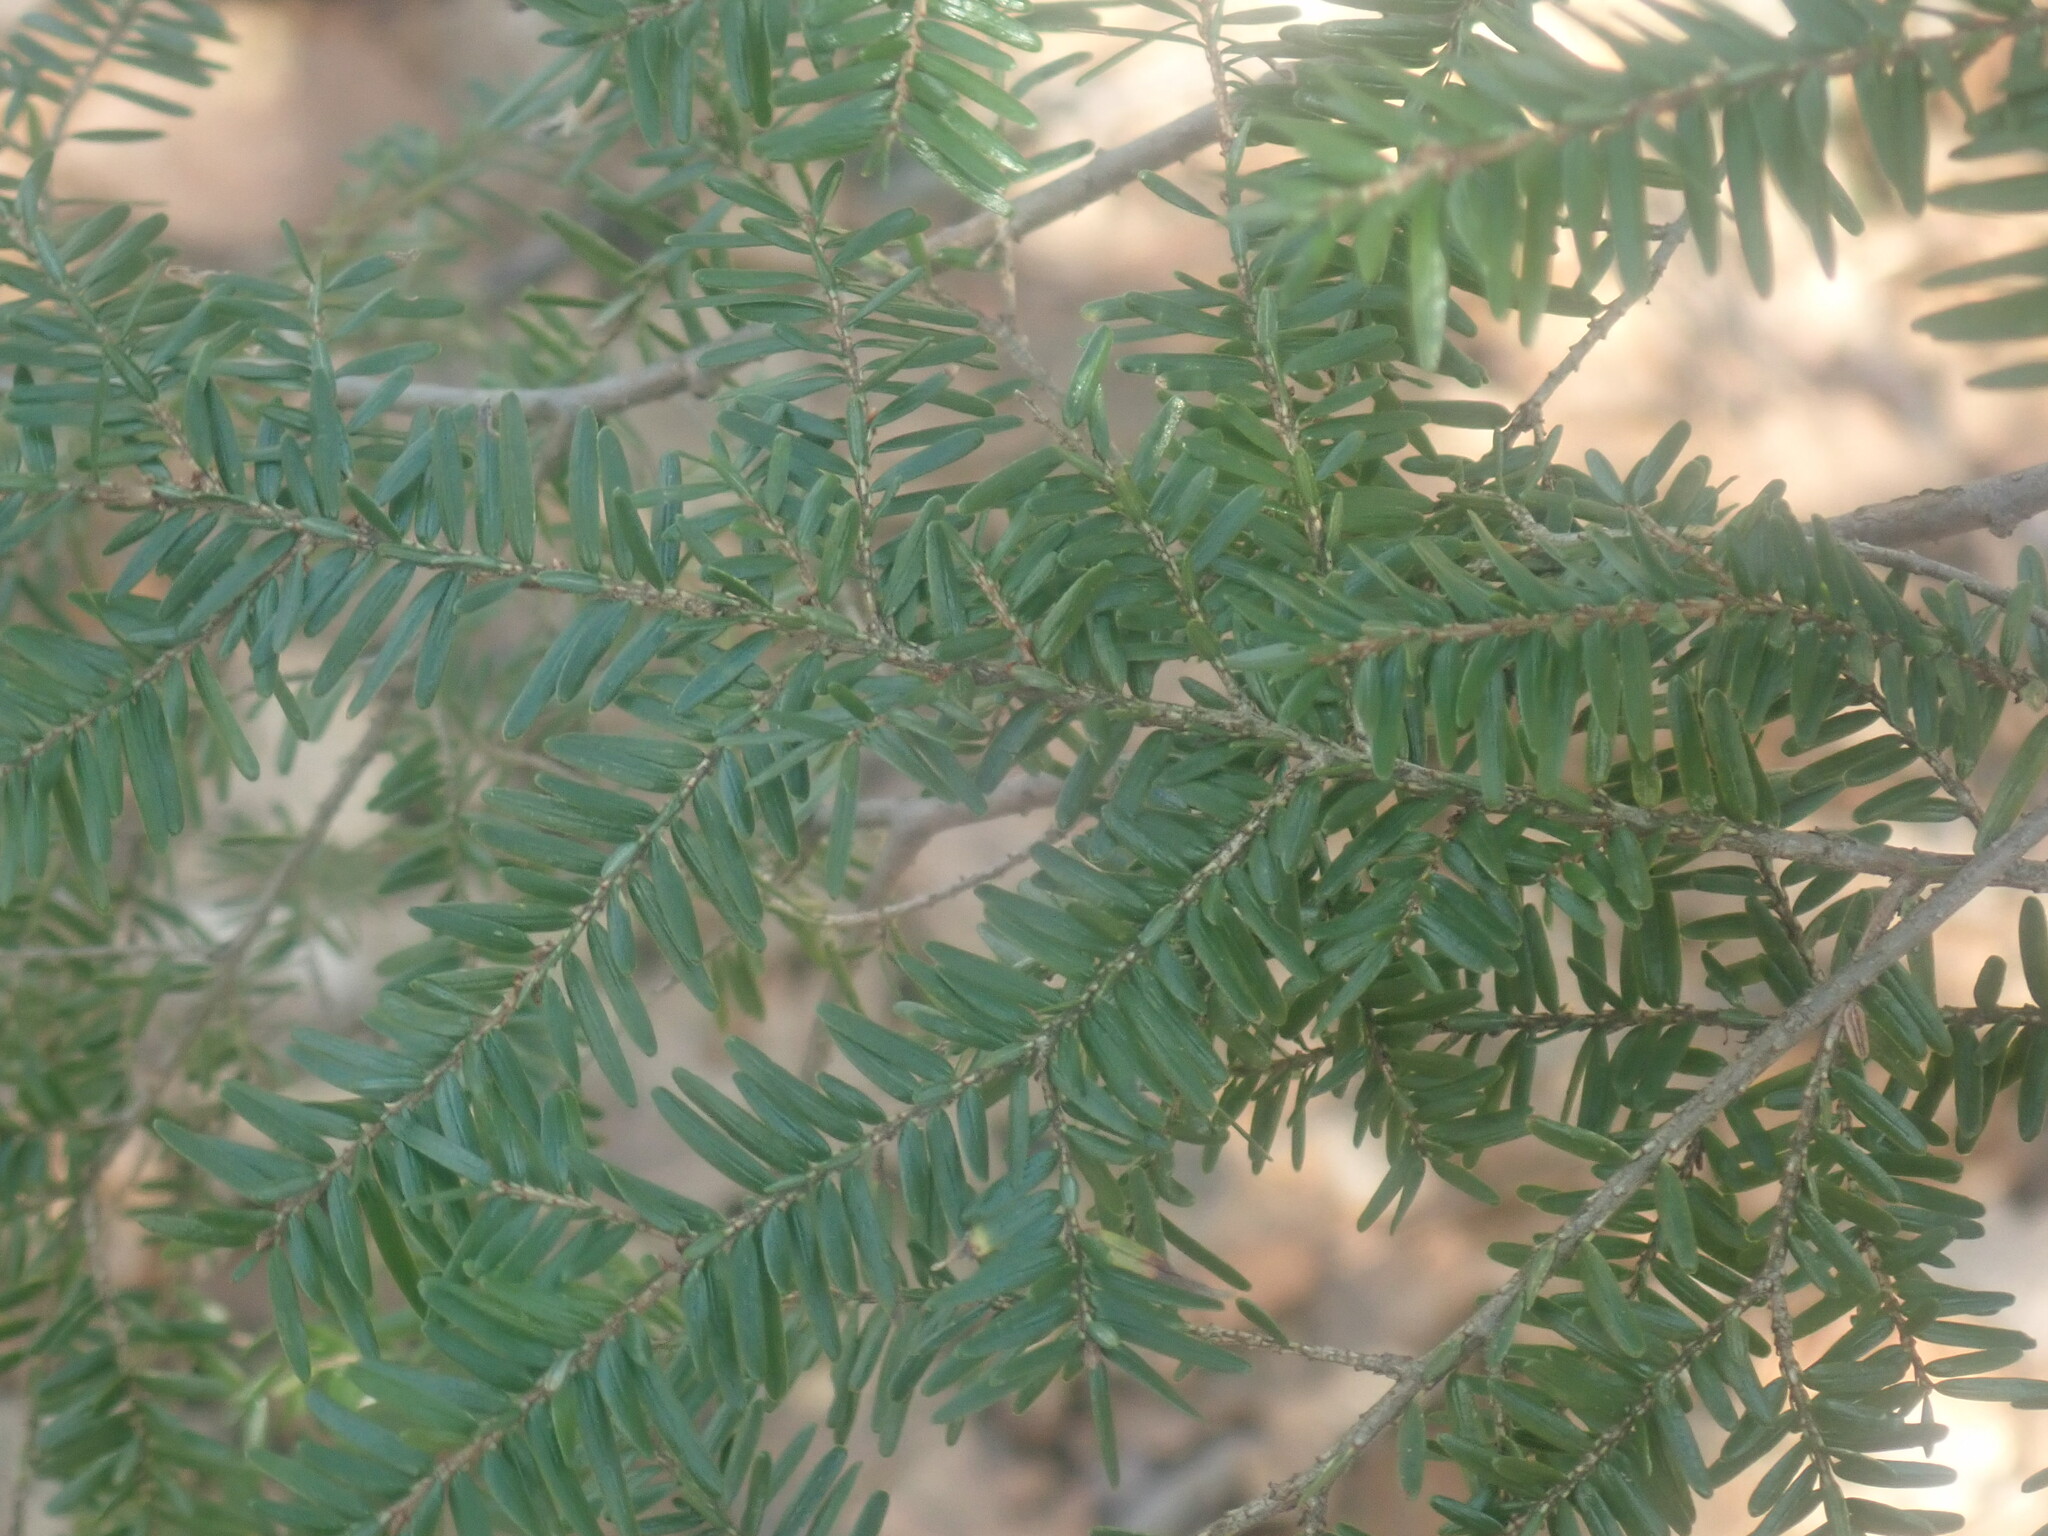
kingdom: Plantae
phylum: Tracheophyta
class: Pinopsida
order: Pinales
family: Pinaceae
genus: Tsuga
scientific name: Tsuga canadensis
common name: Eastern hemlock
